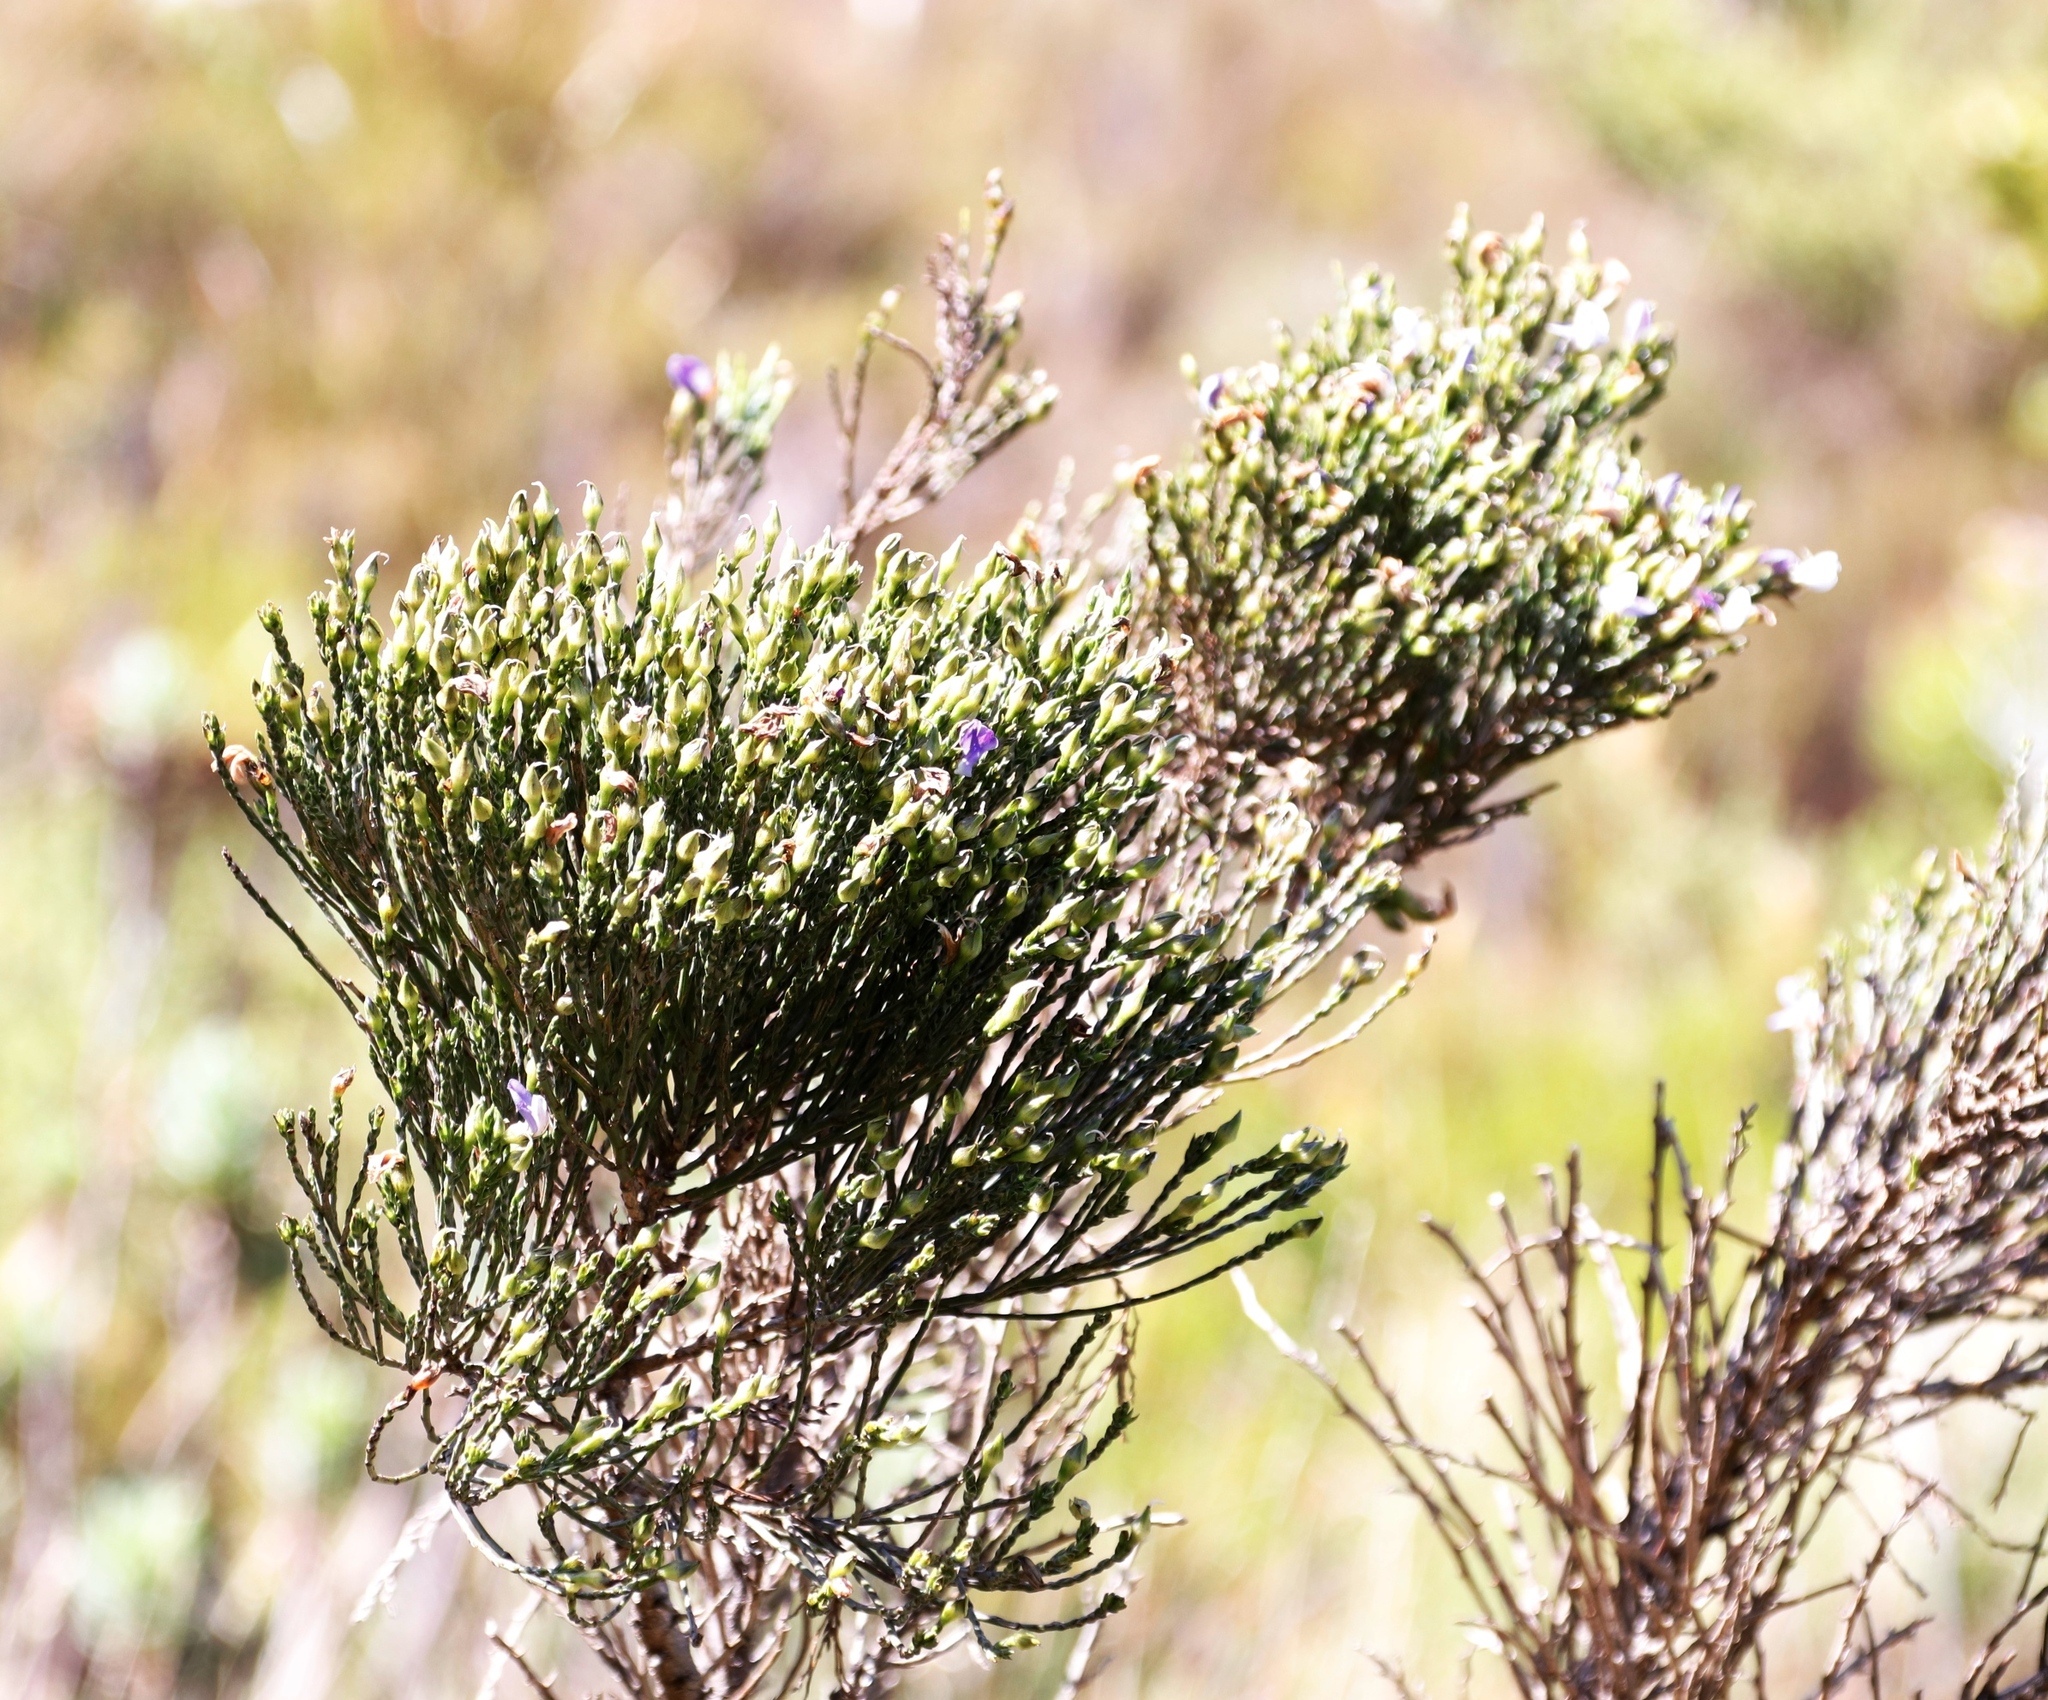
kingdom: Plantae
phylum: Tracheophyta
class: Magnoliopsida
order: Fabales
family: Fabaceae
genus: Psoralea
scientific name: Psoralea congesta
